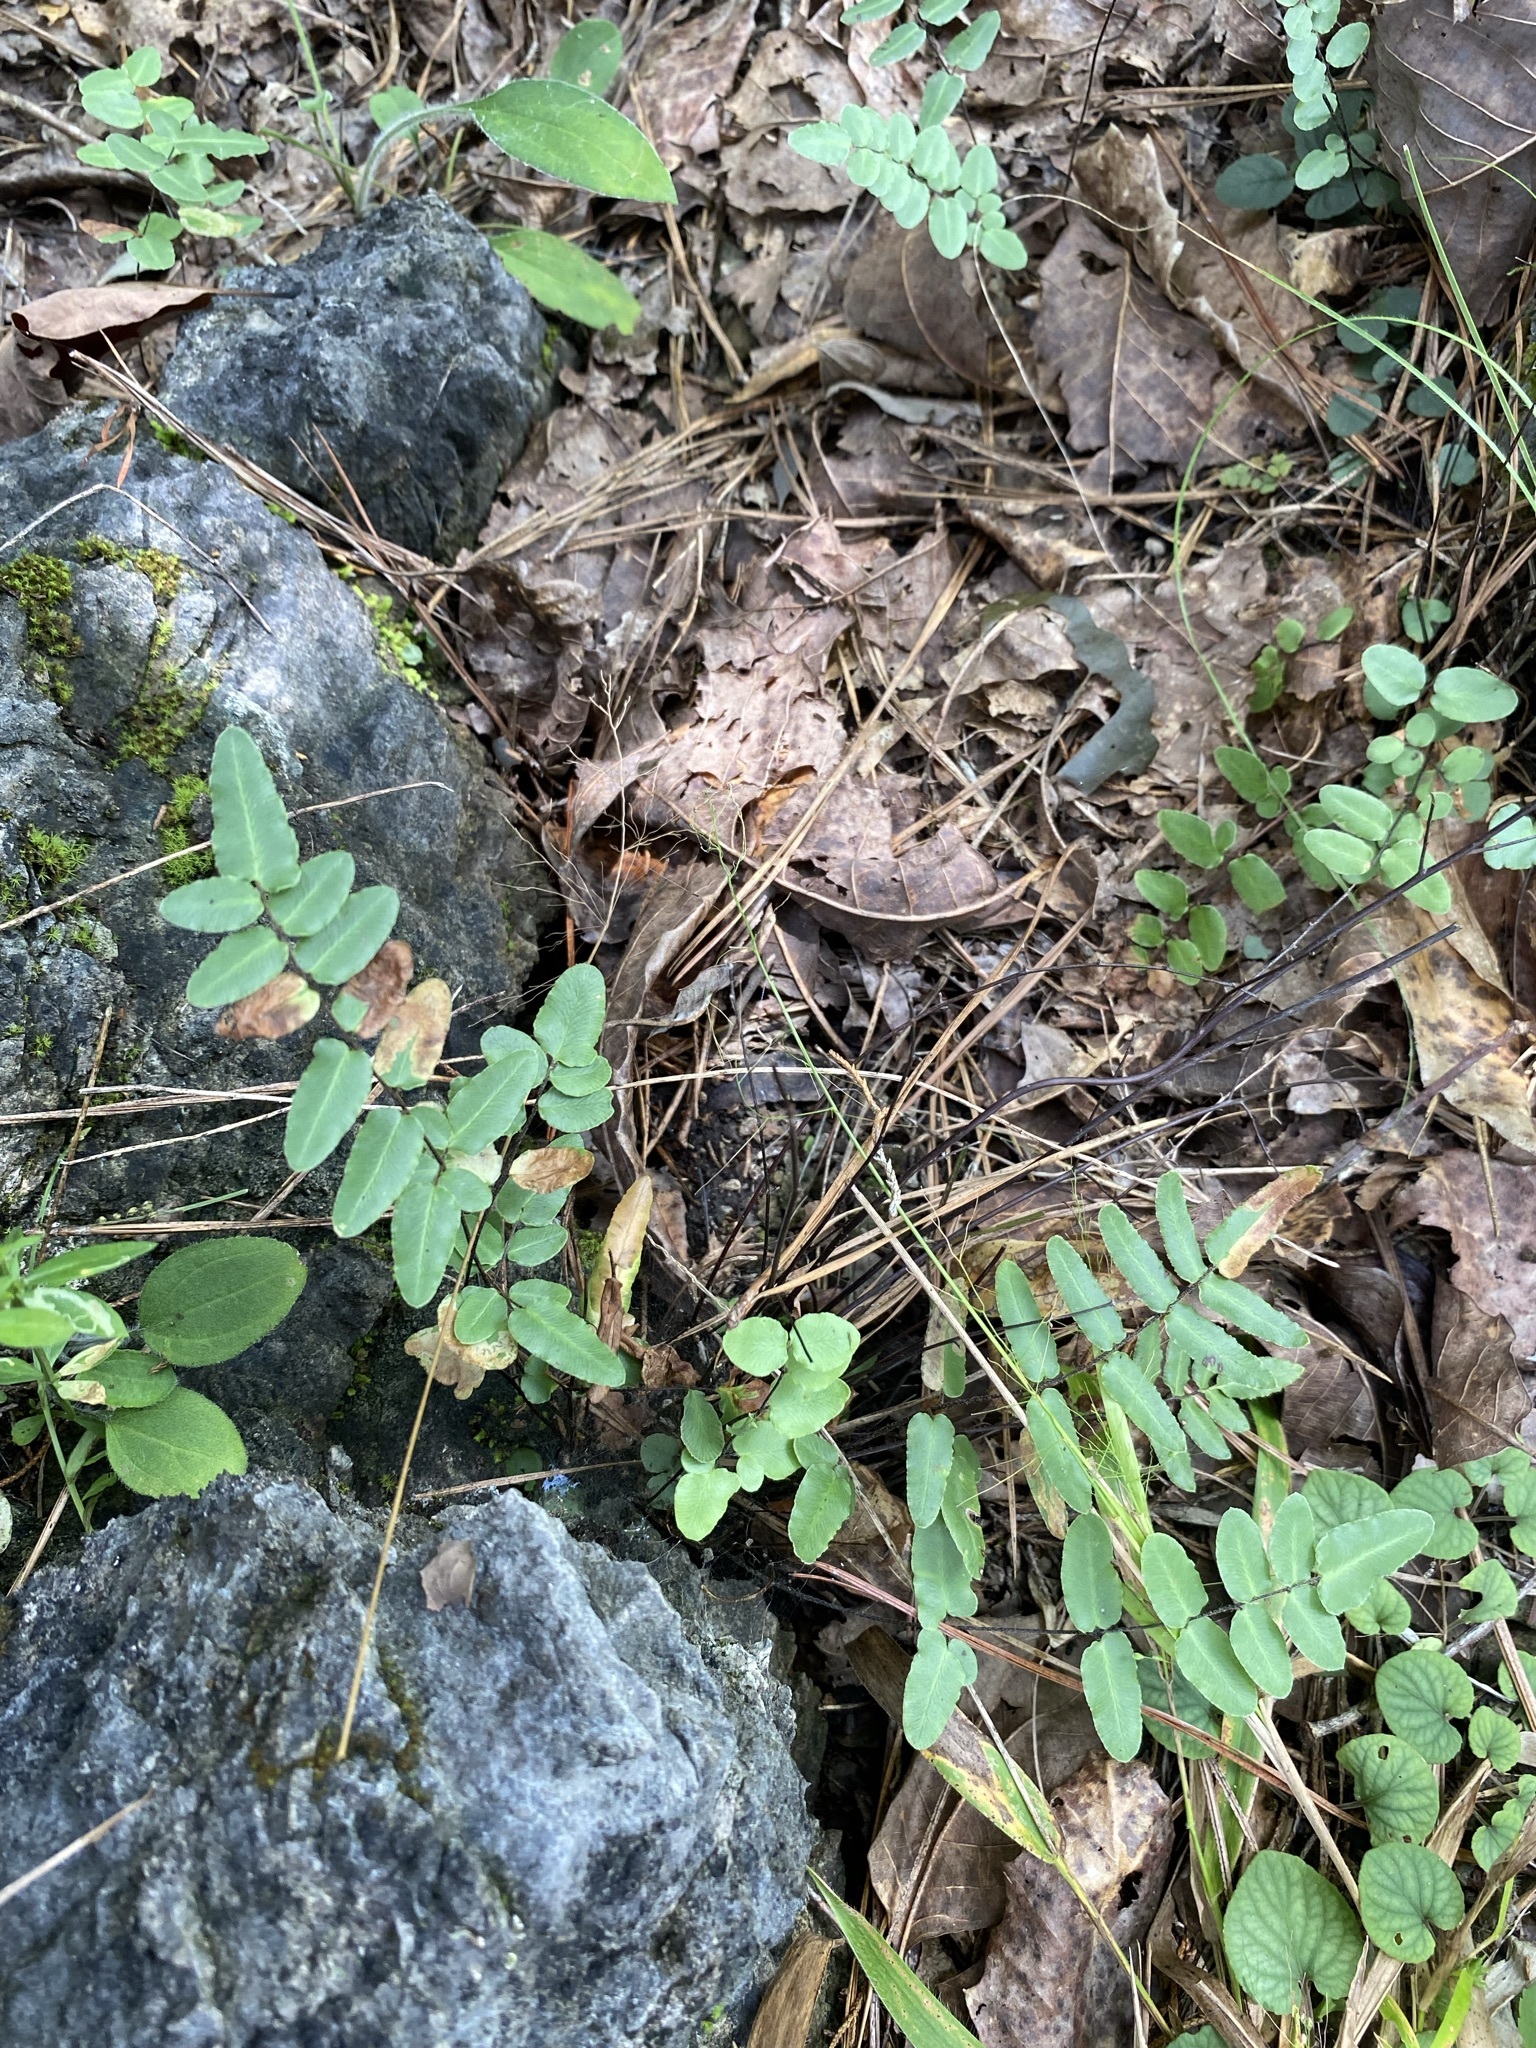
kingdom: Plantae
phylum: Tracheophyta
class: Polypodiopsida
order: Polypodiales
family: Pteridaceae
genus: Pellaea
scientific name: Pellaea atropurpurea
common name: Hairy cliffbrake
